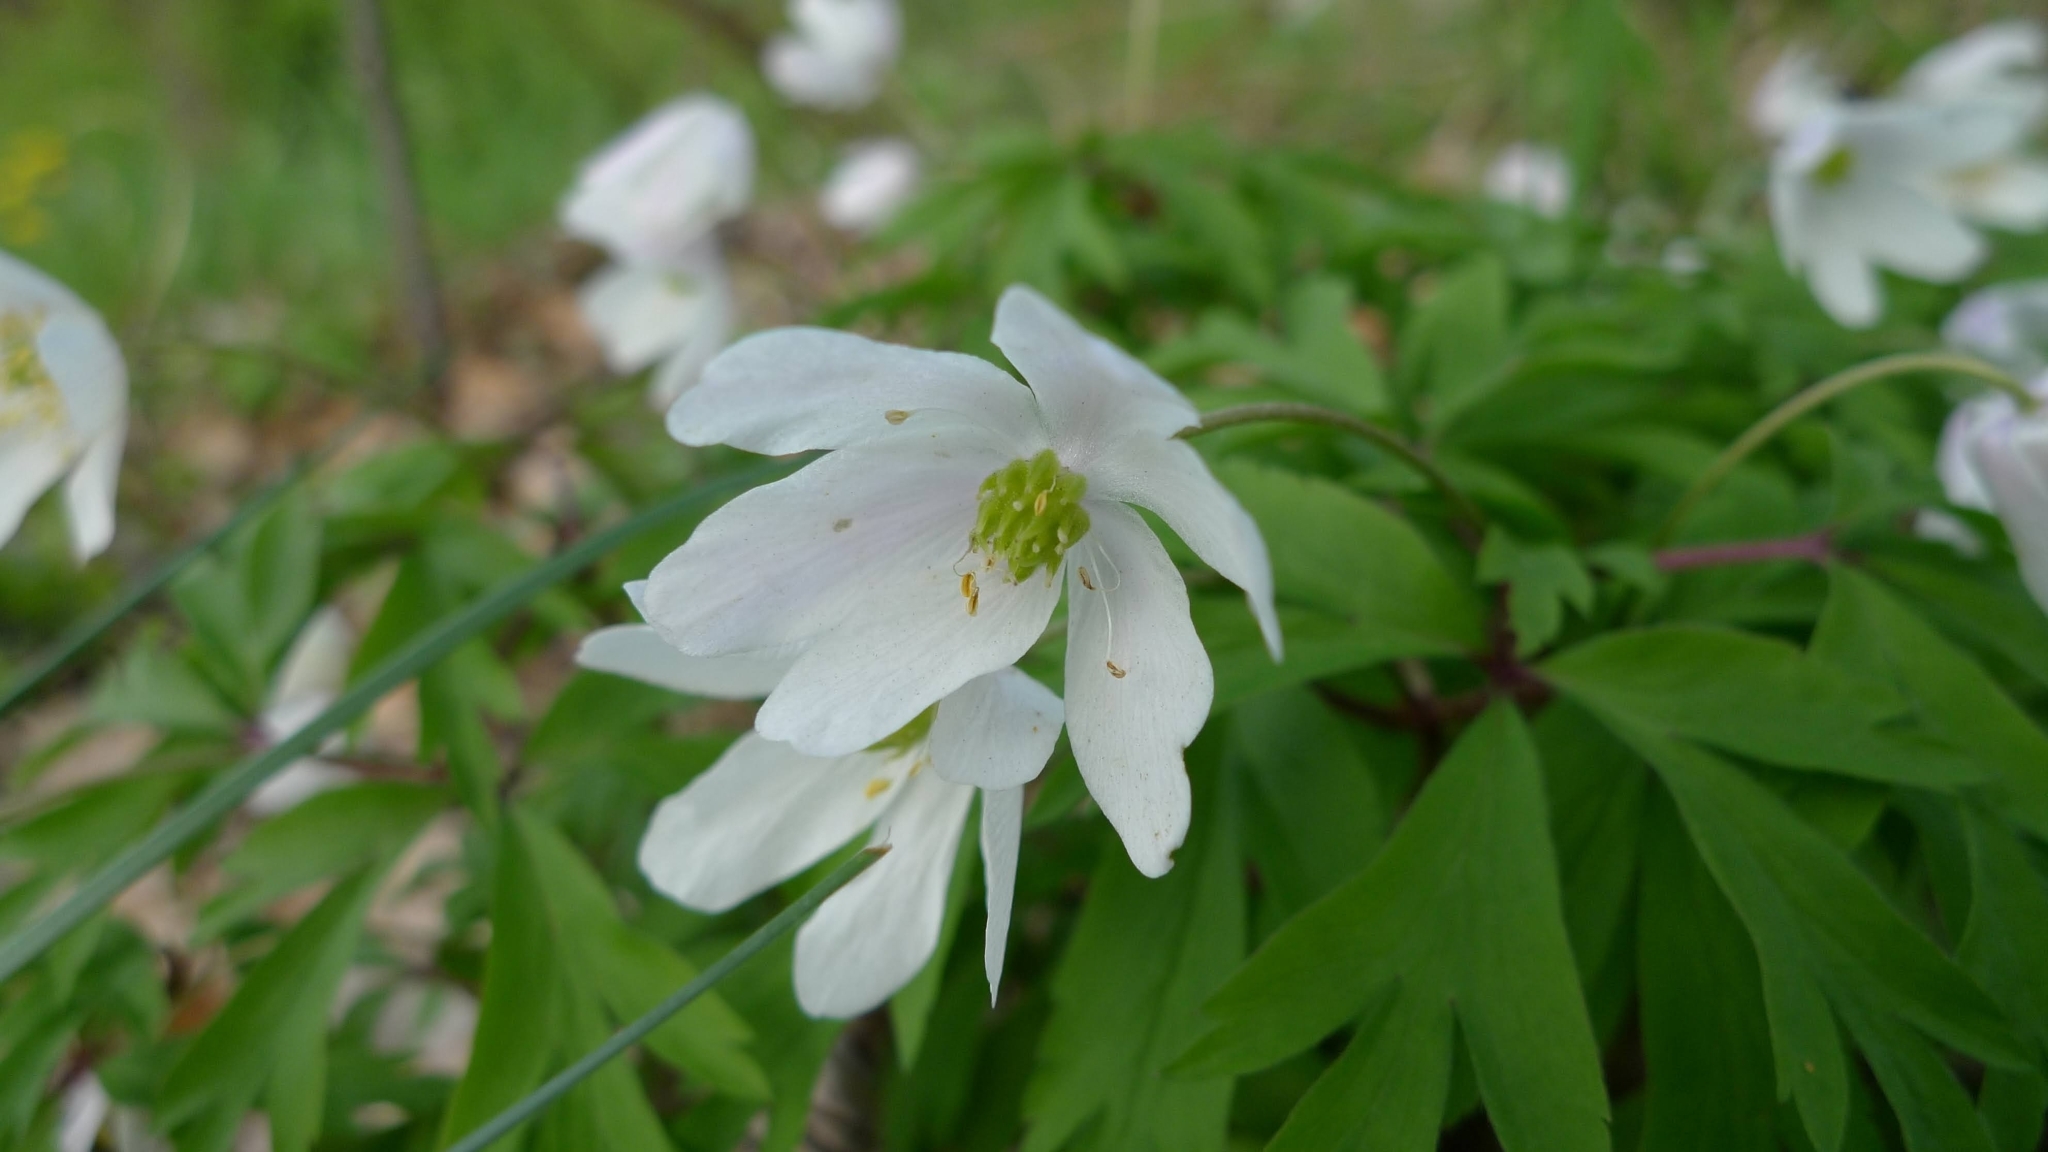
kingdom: Plantae
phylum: Tracheophyta
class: Magnoliopsida
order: Ranunculales
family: Ranunculaceae
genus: Anemone
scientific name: Anemone nemorosa
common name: Wood anemone
